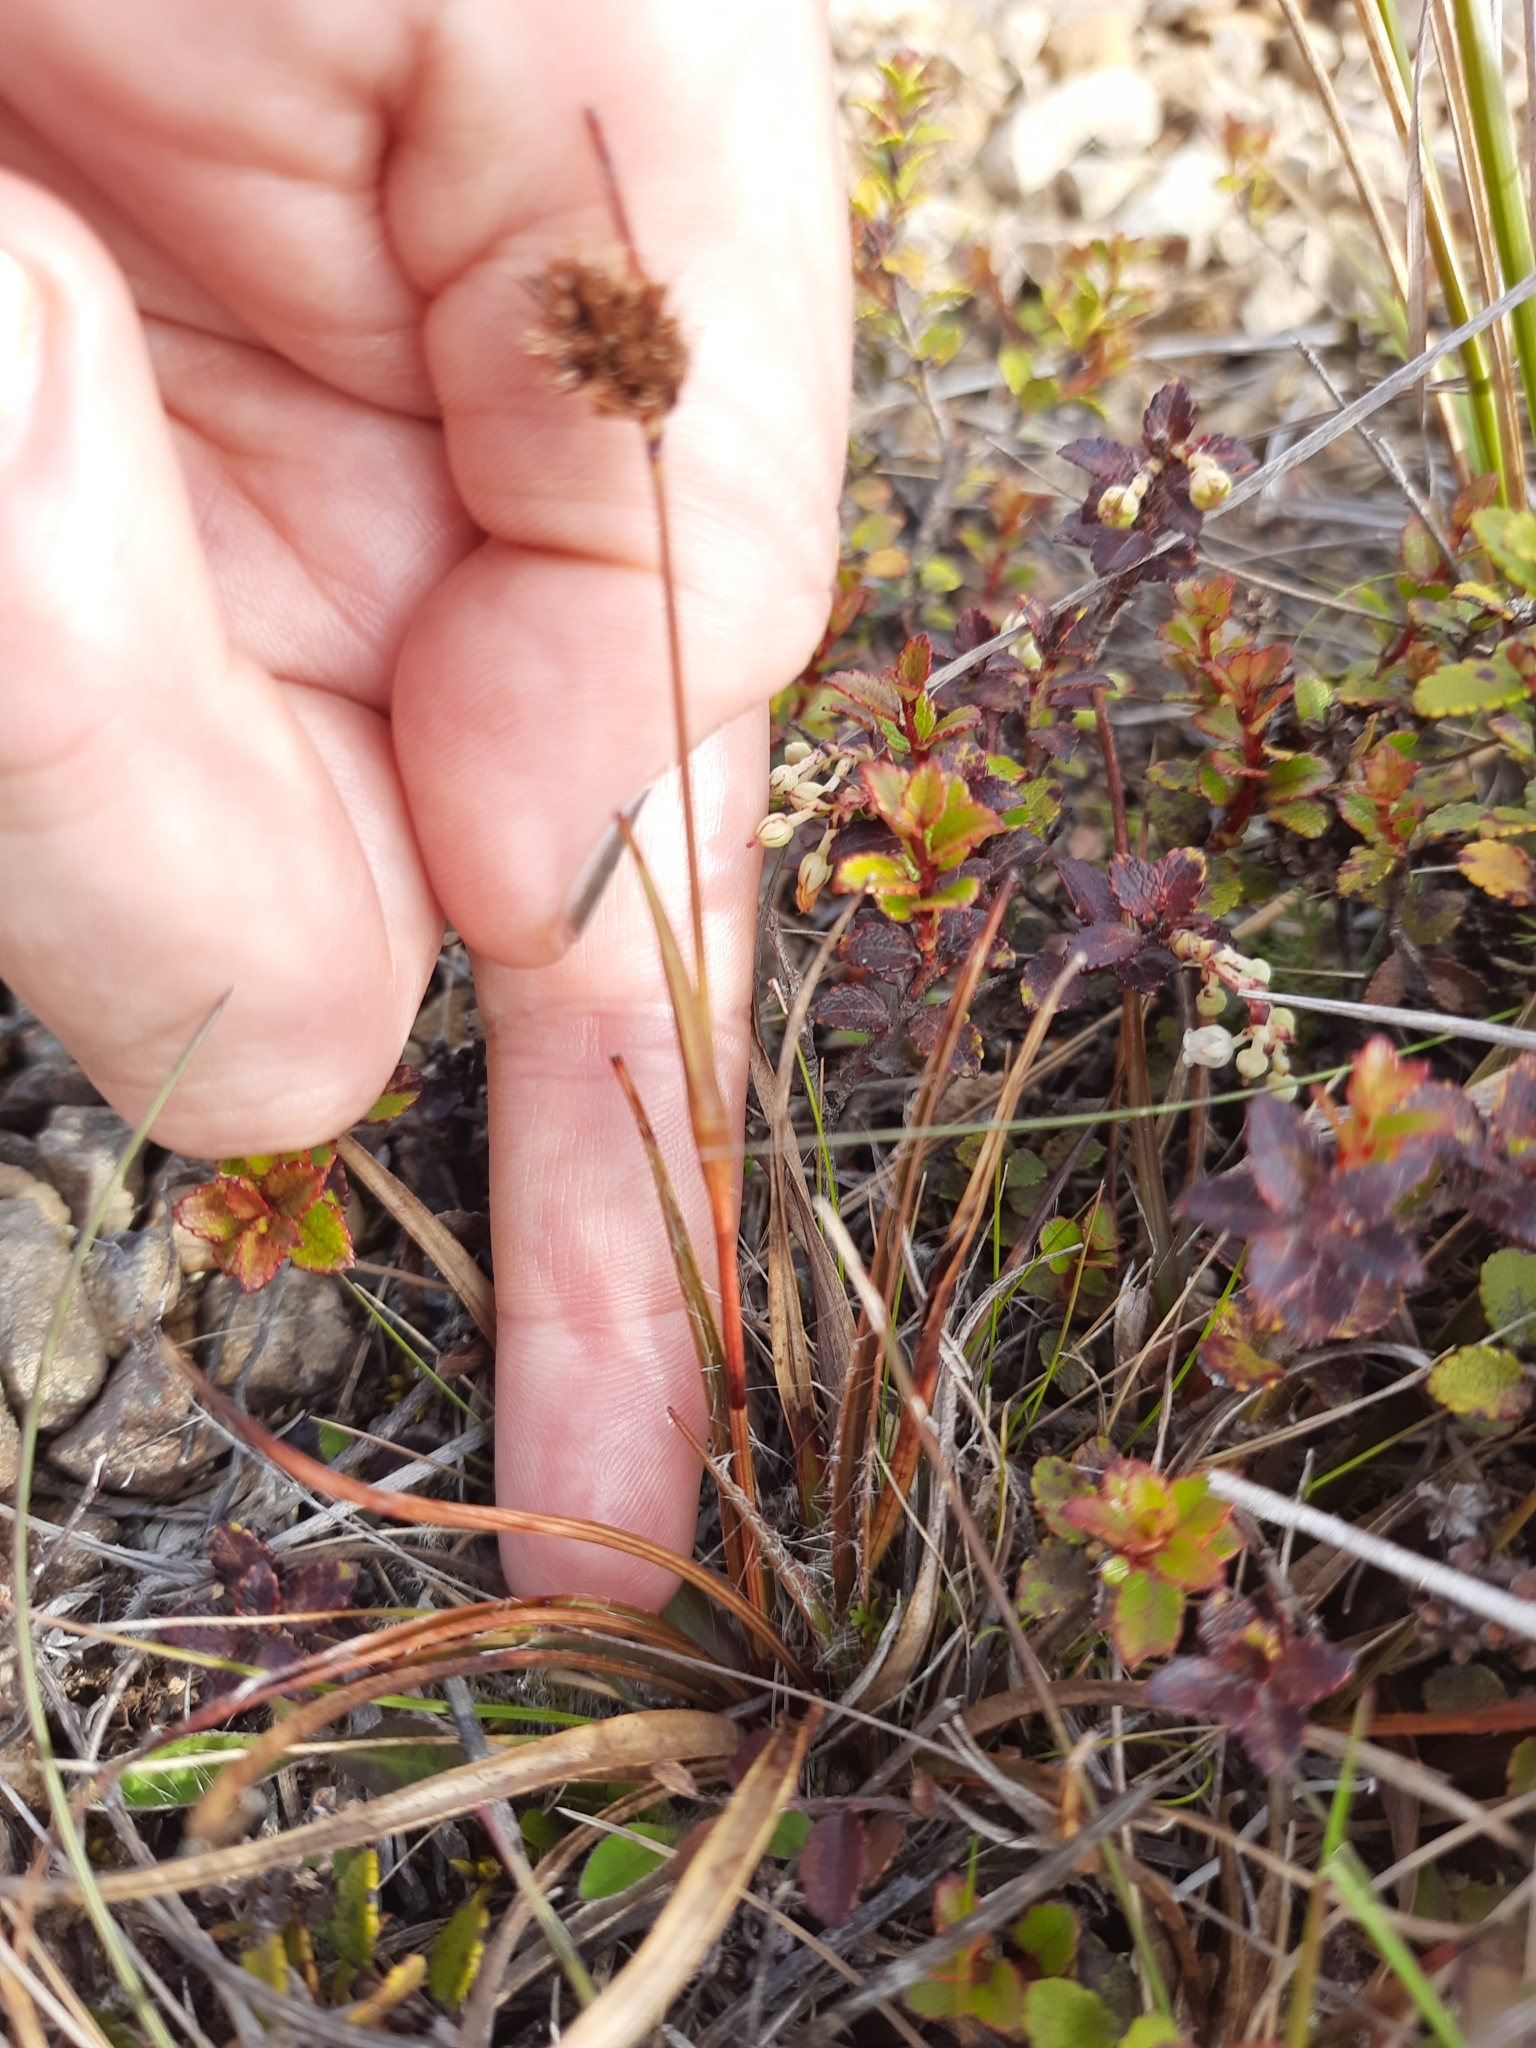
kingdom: Plantae
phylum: Tracheophyta
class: Liliopsida
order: Poales
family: Juncaceae
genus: Luzula
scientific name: Luzula rufa
